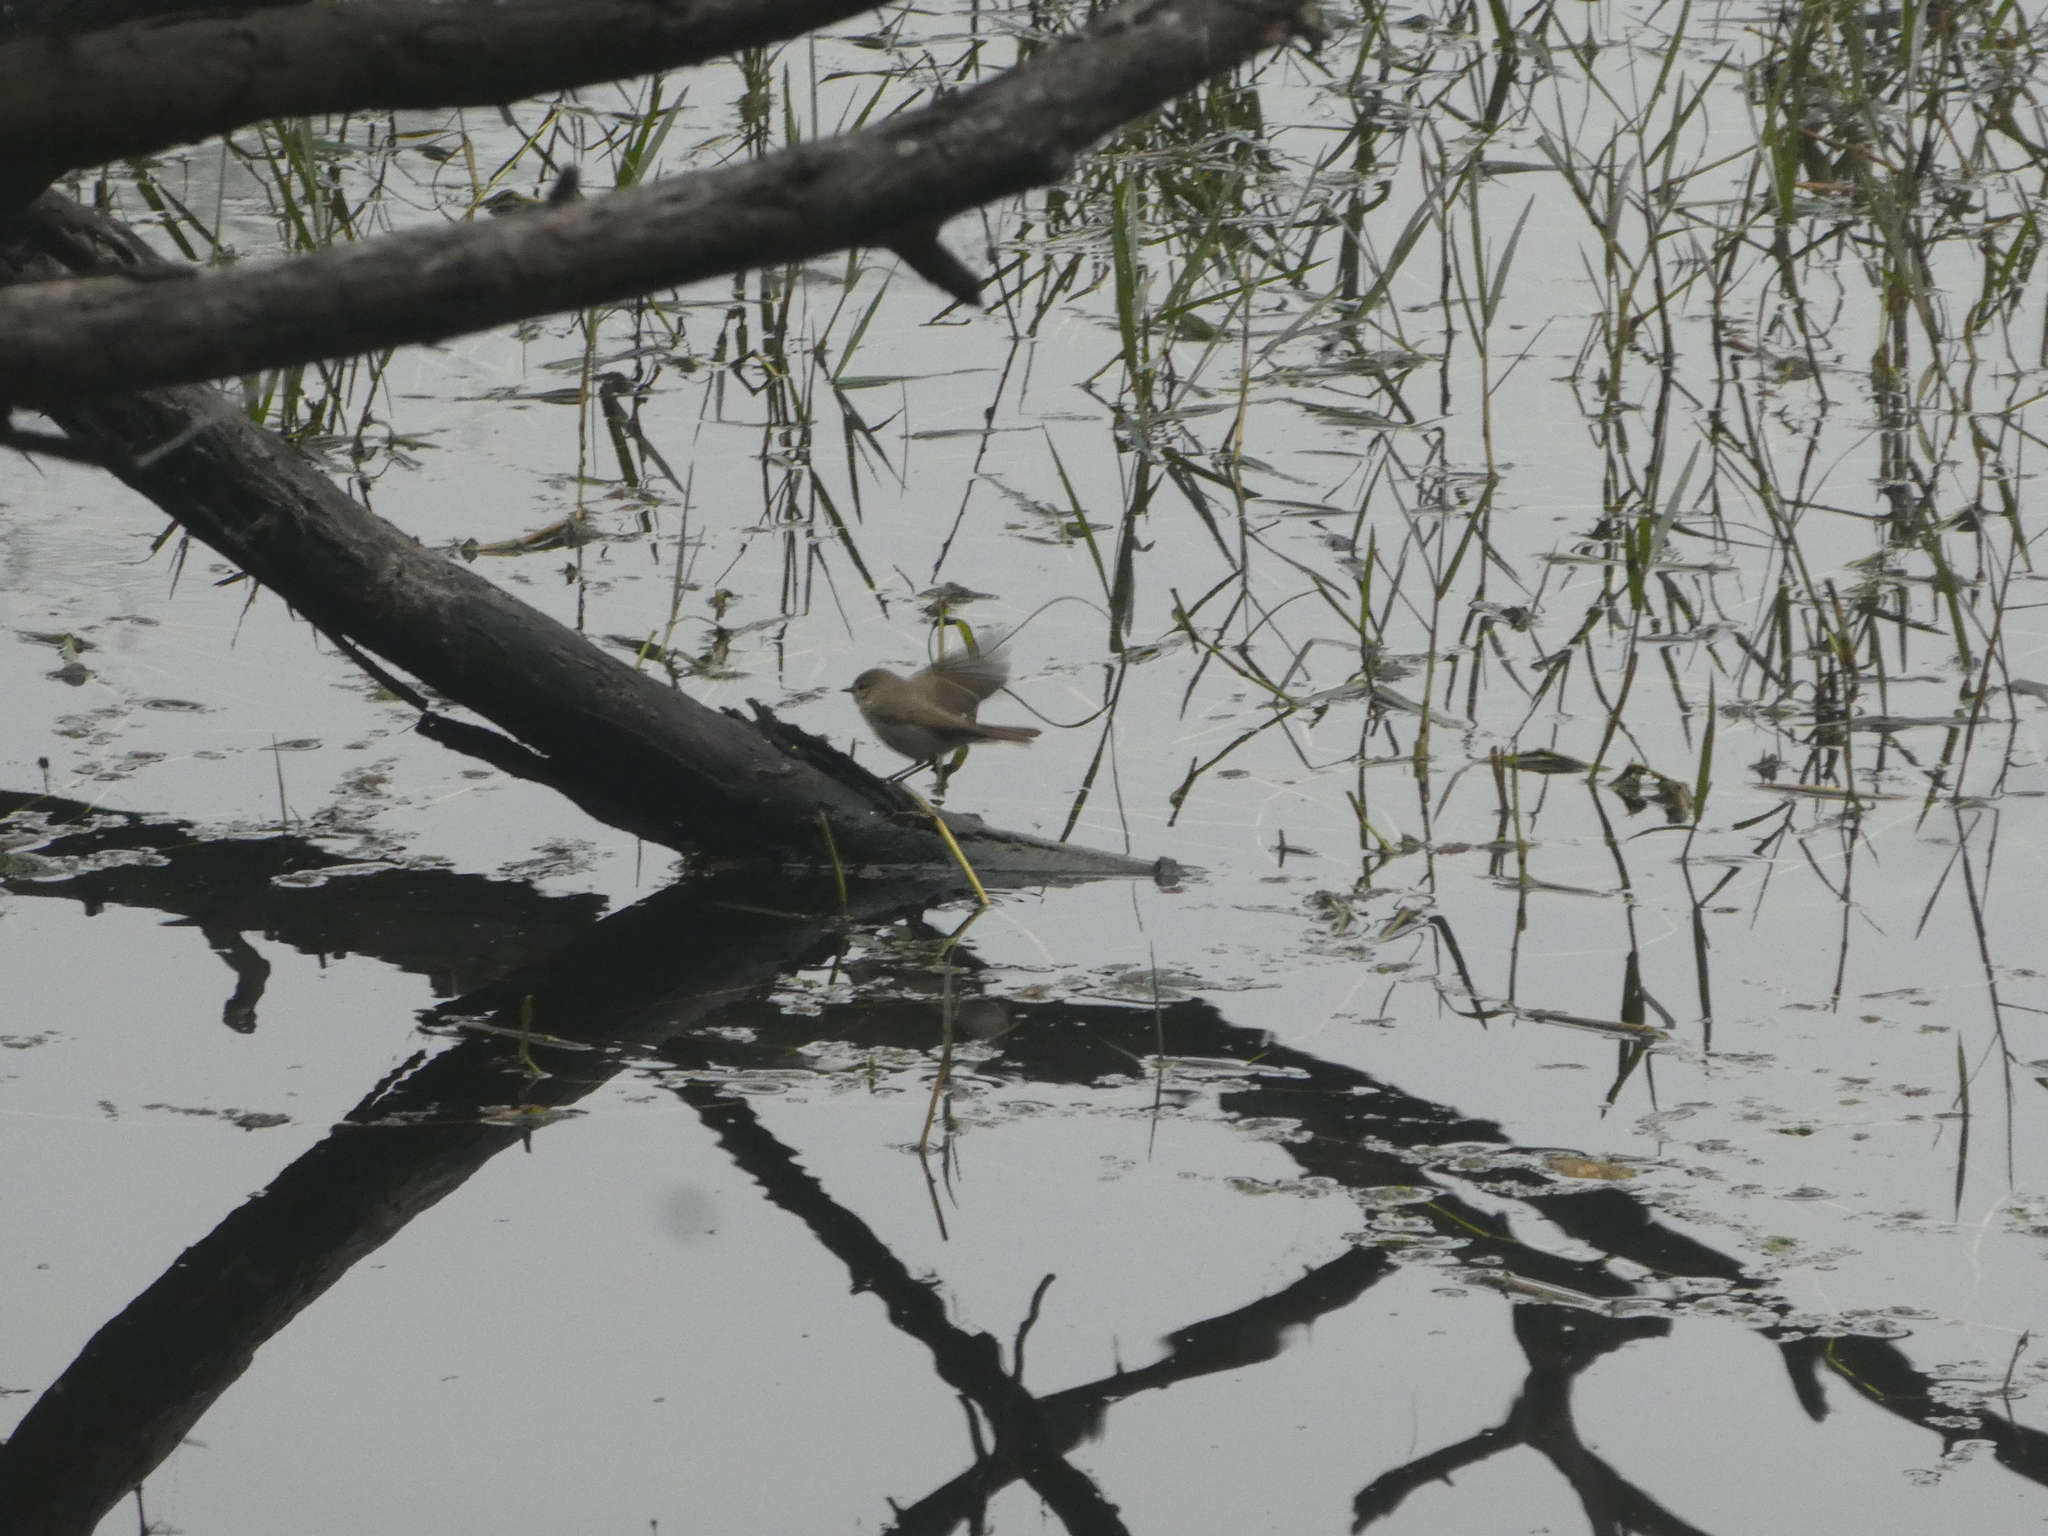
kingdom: Animalia
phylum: Chordata
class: Aves
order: Passeriformes
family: Phylloscopidae
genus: Phylloscopus
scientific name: Phylloscopus collybita
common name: Common chiffchaff
